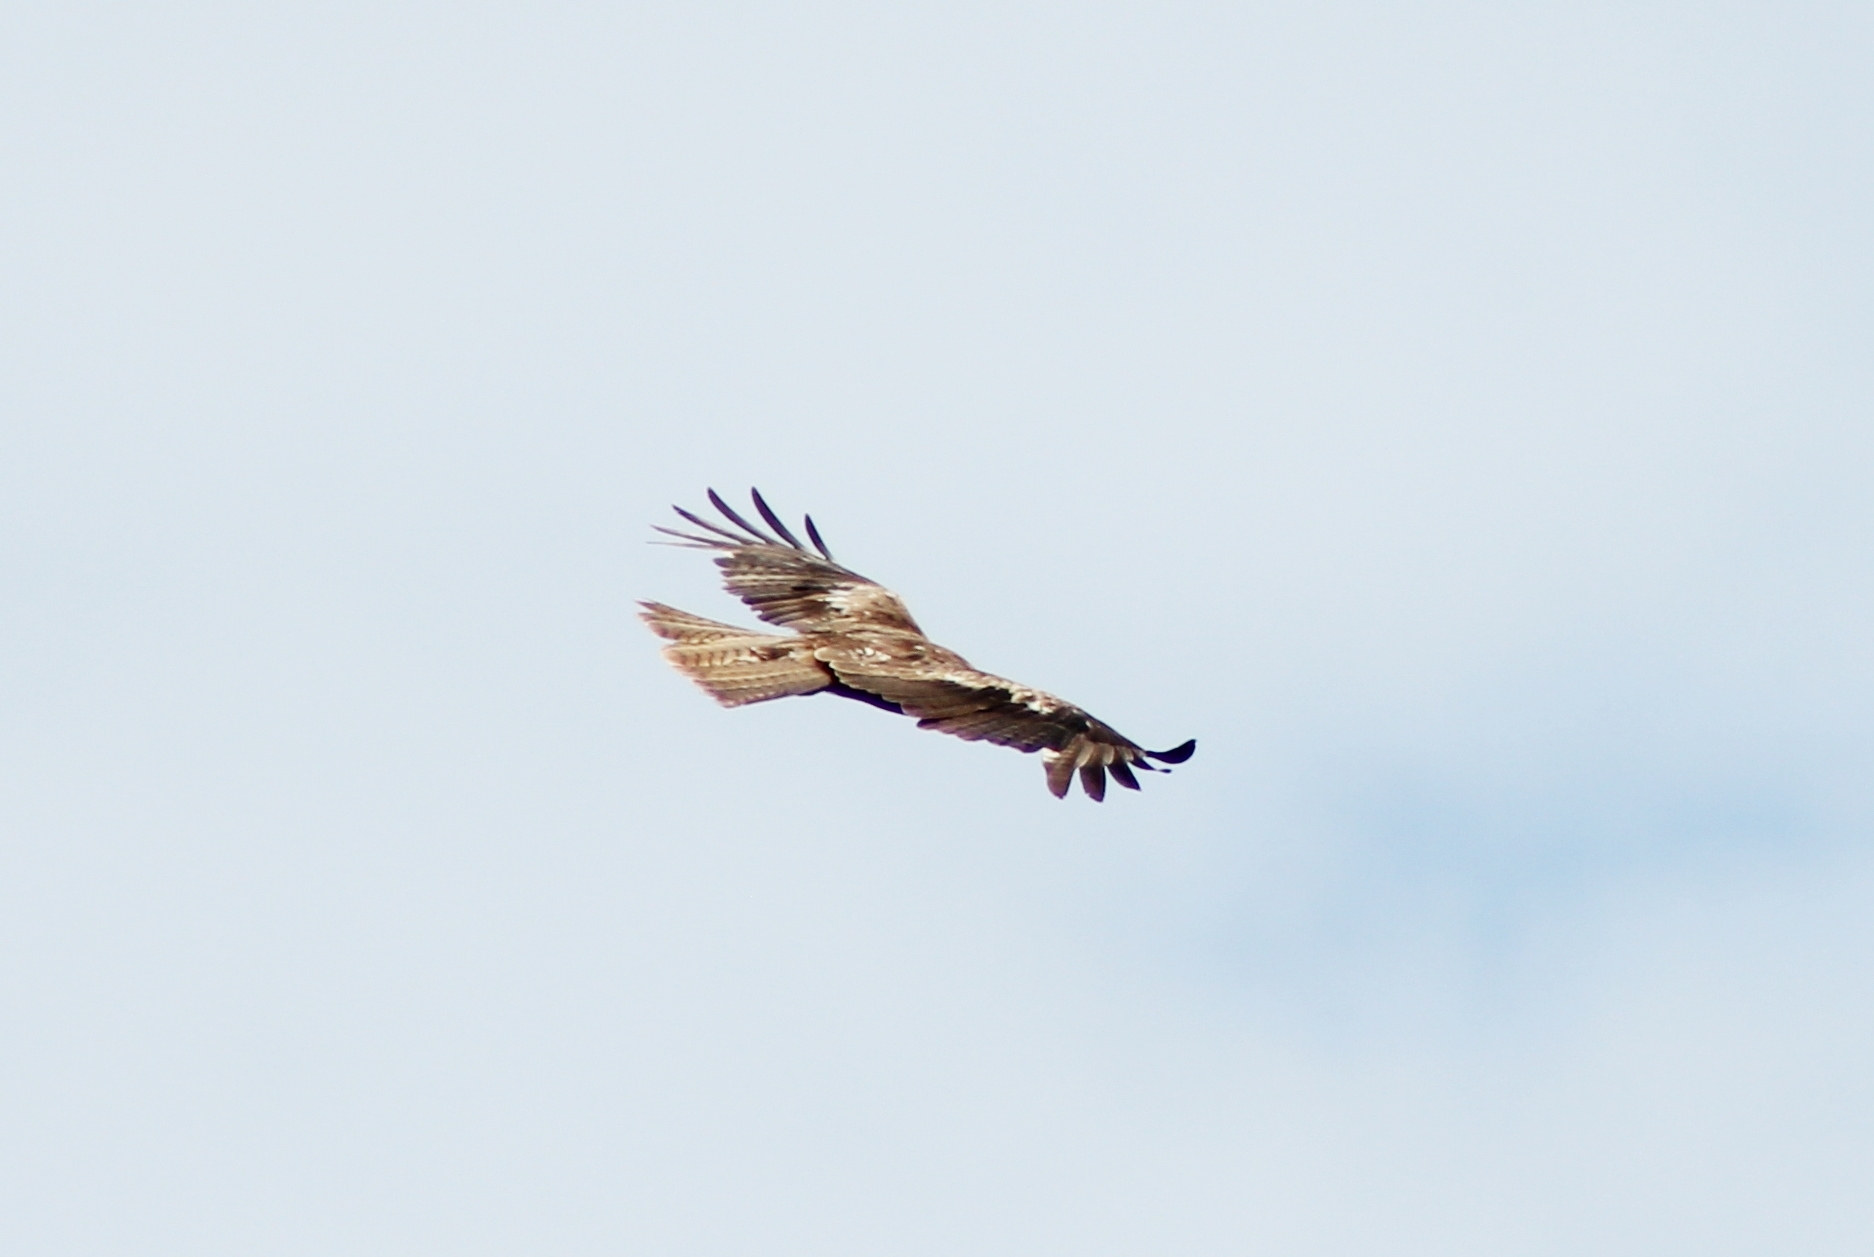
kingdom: Animalia
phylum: Chordata
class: Aves
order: Accipitriformes
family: Accipitridae
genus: Milvus
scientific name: Milvus migrans
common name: Black kite
